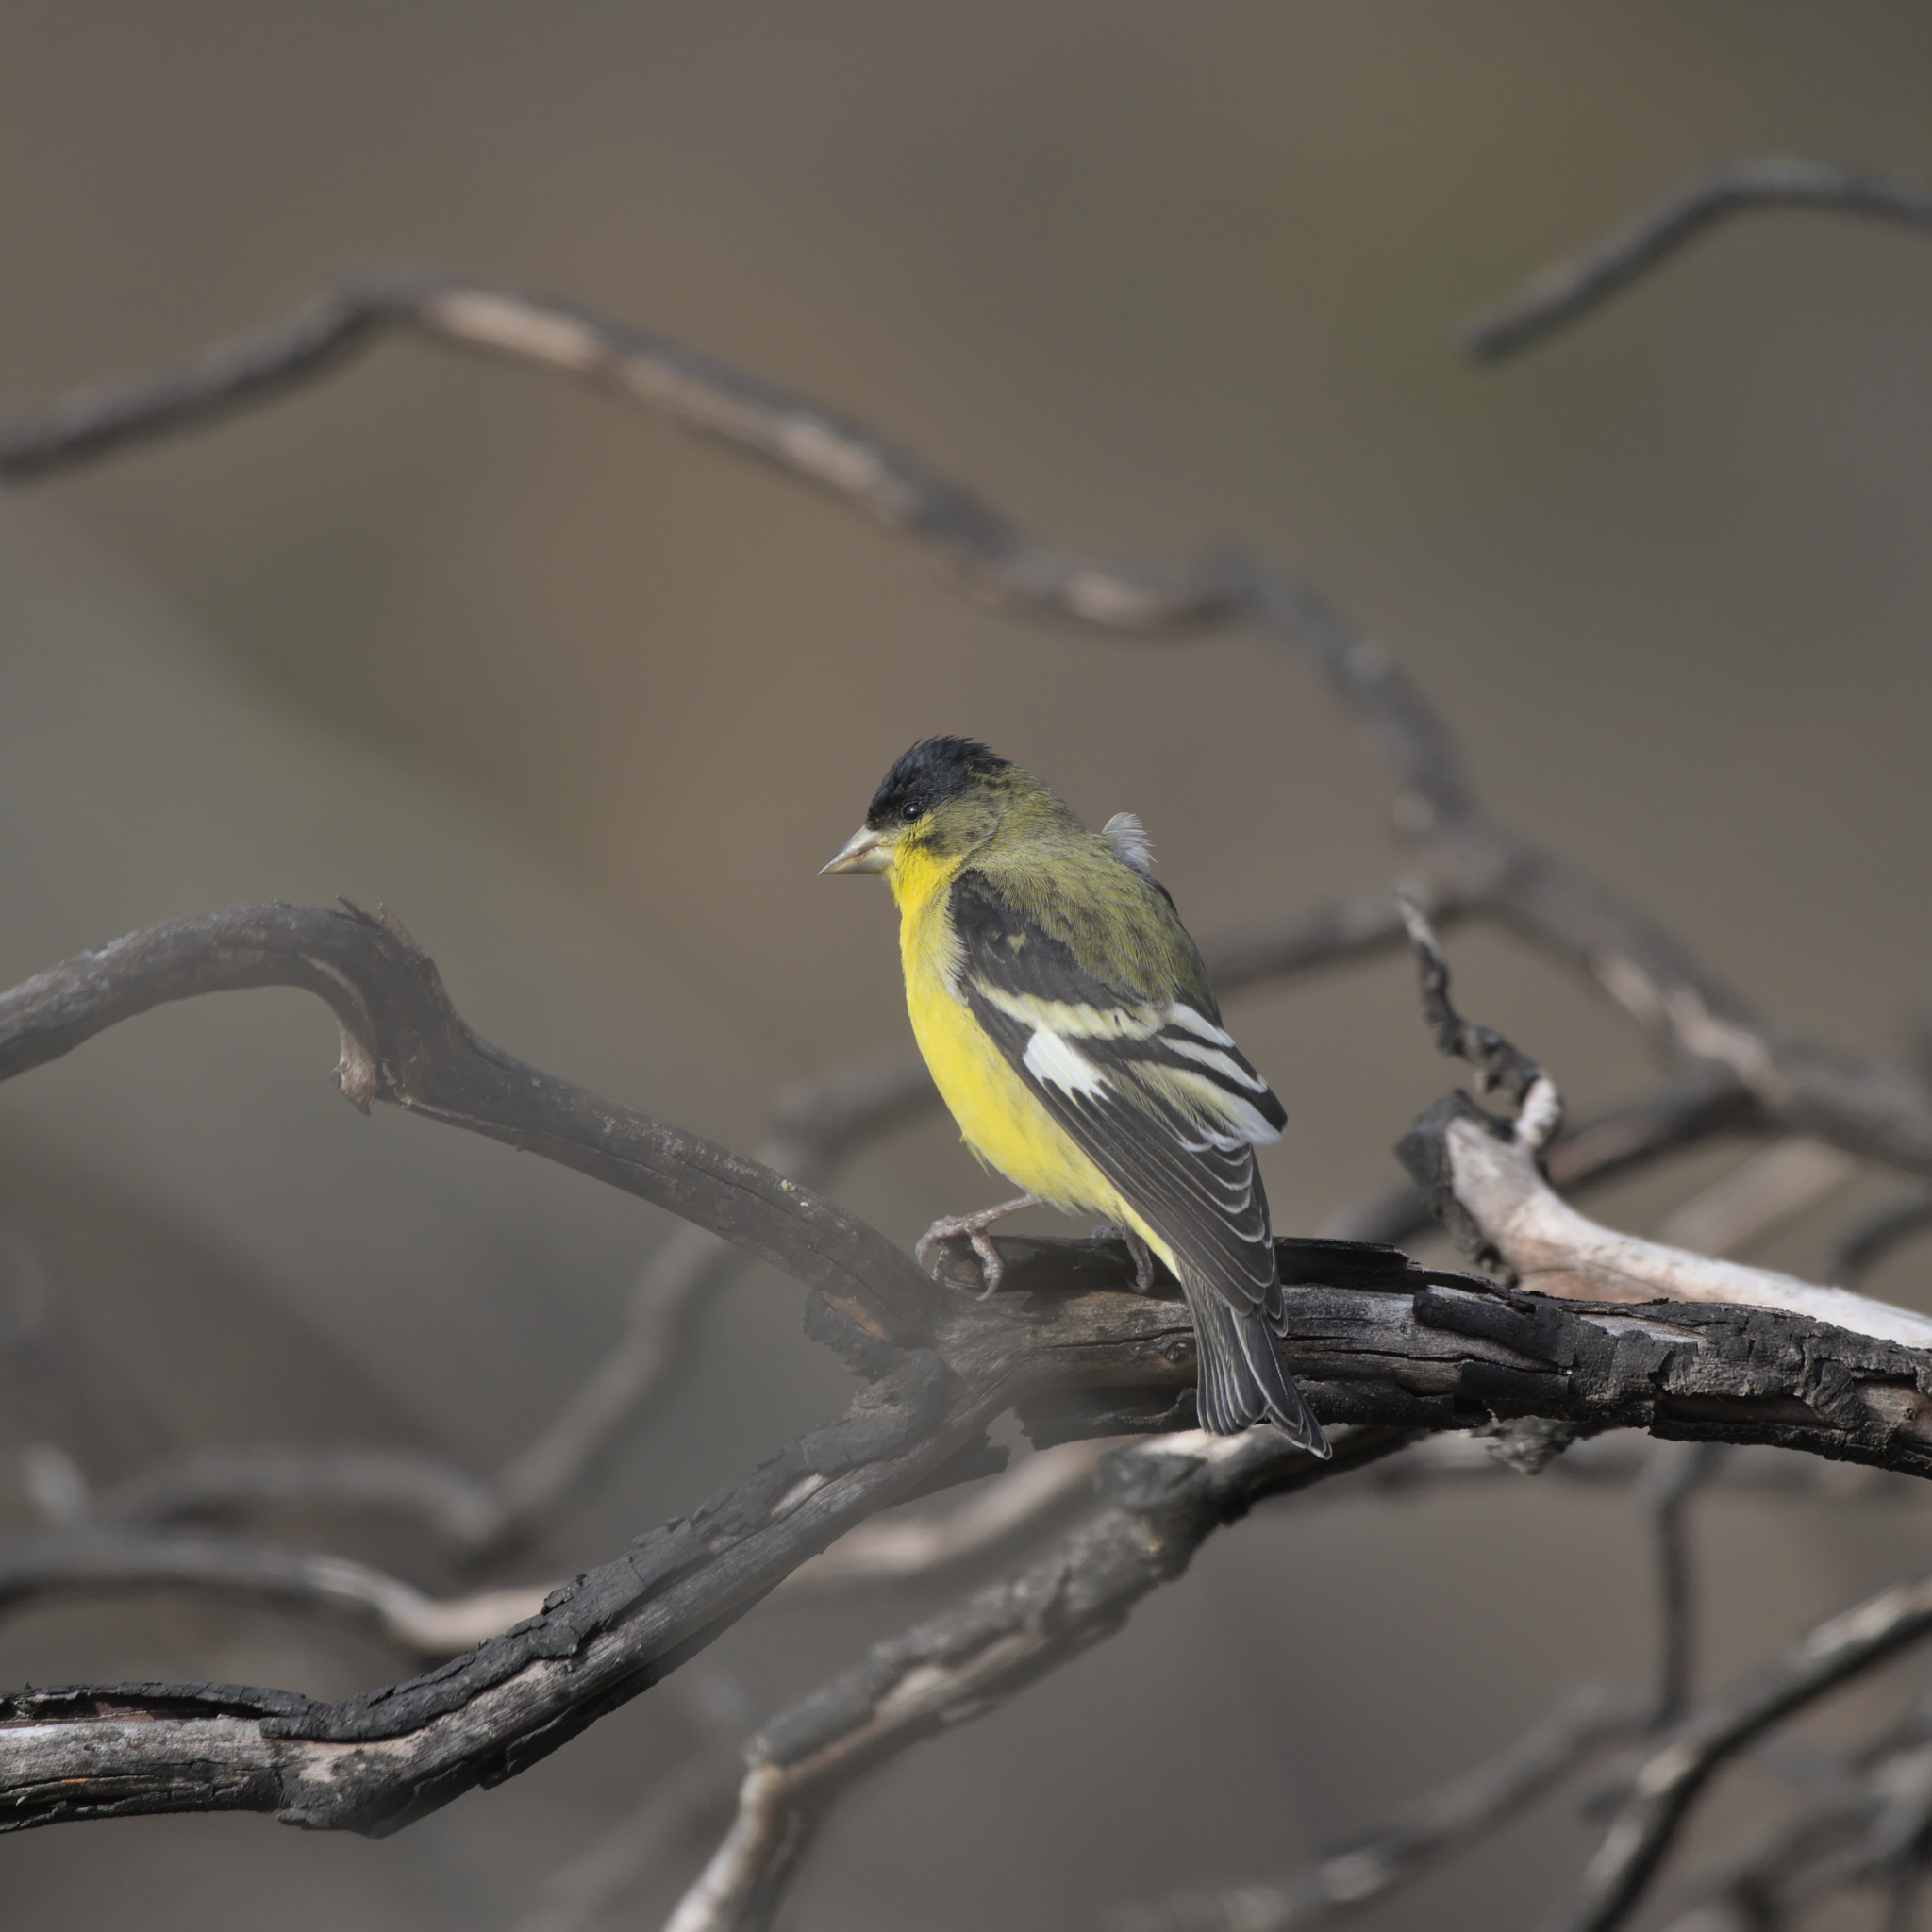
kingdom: Animalia
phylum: Chordata
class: Aves
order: Passeriformes
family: Fringillidae
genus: Spinus
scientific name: Spinus psaltria
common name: Lesser goldfinch
